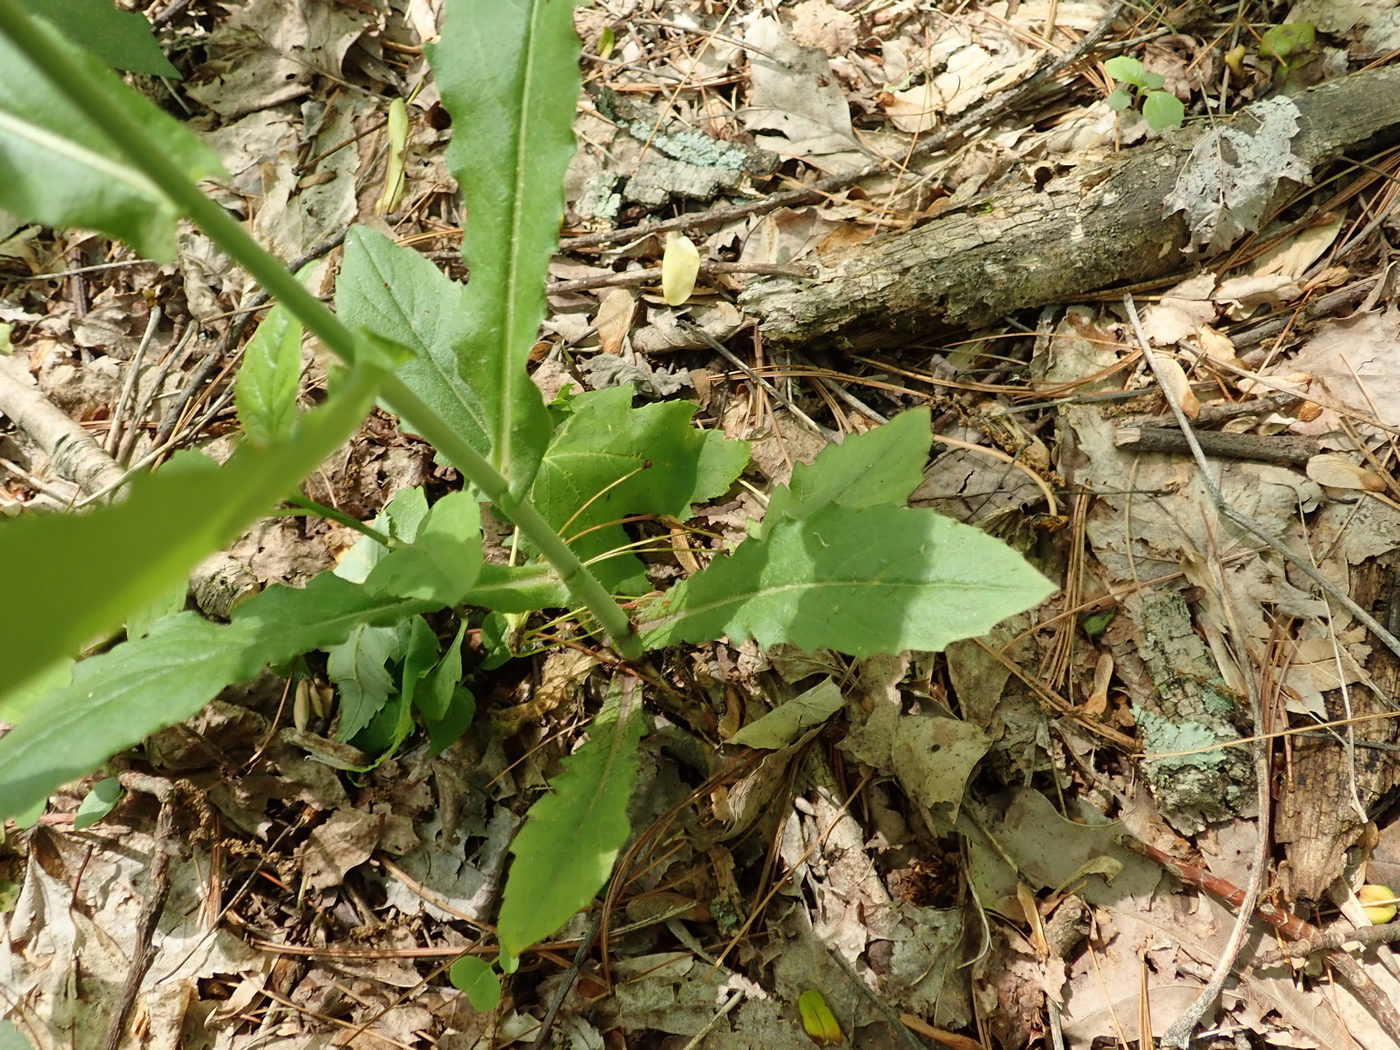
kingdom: Plantae
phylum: Tracheophyta
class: Magnoliopsida
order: Brassicales
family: Brassicaceae
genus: Borodinia
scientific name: Borodinia canadensis
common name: Sicklepod
